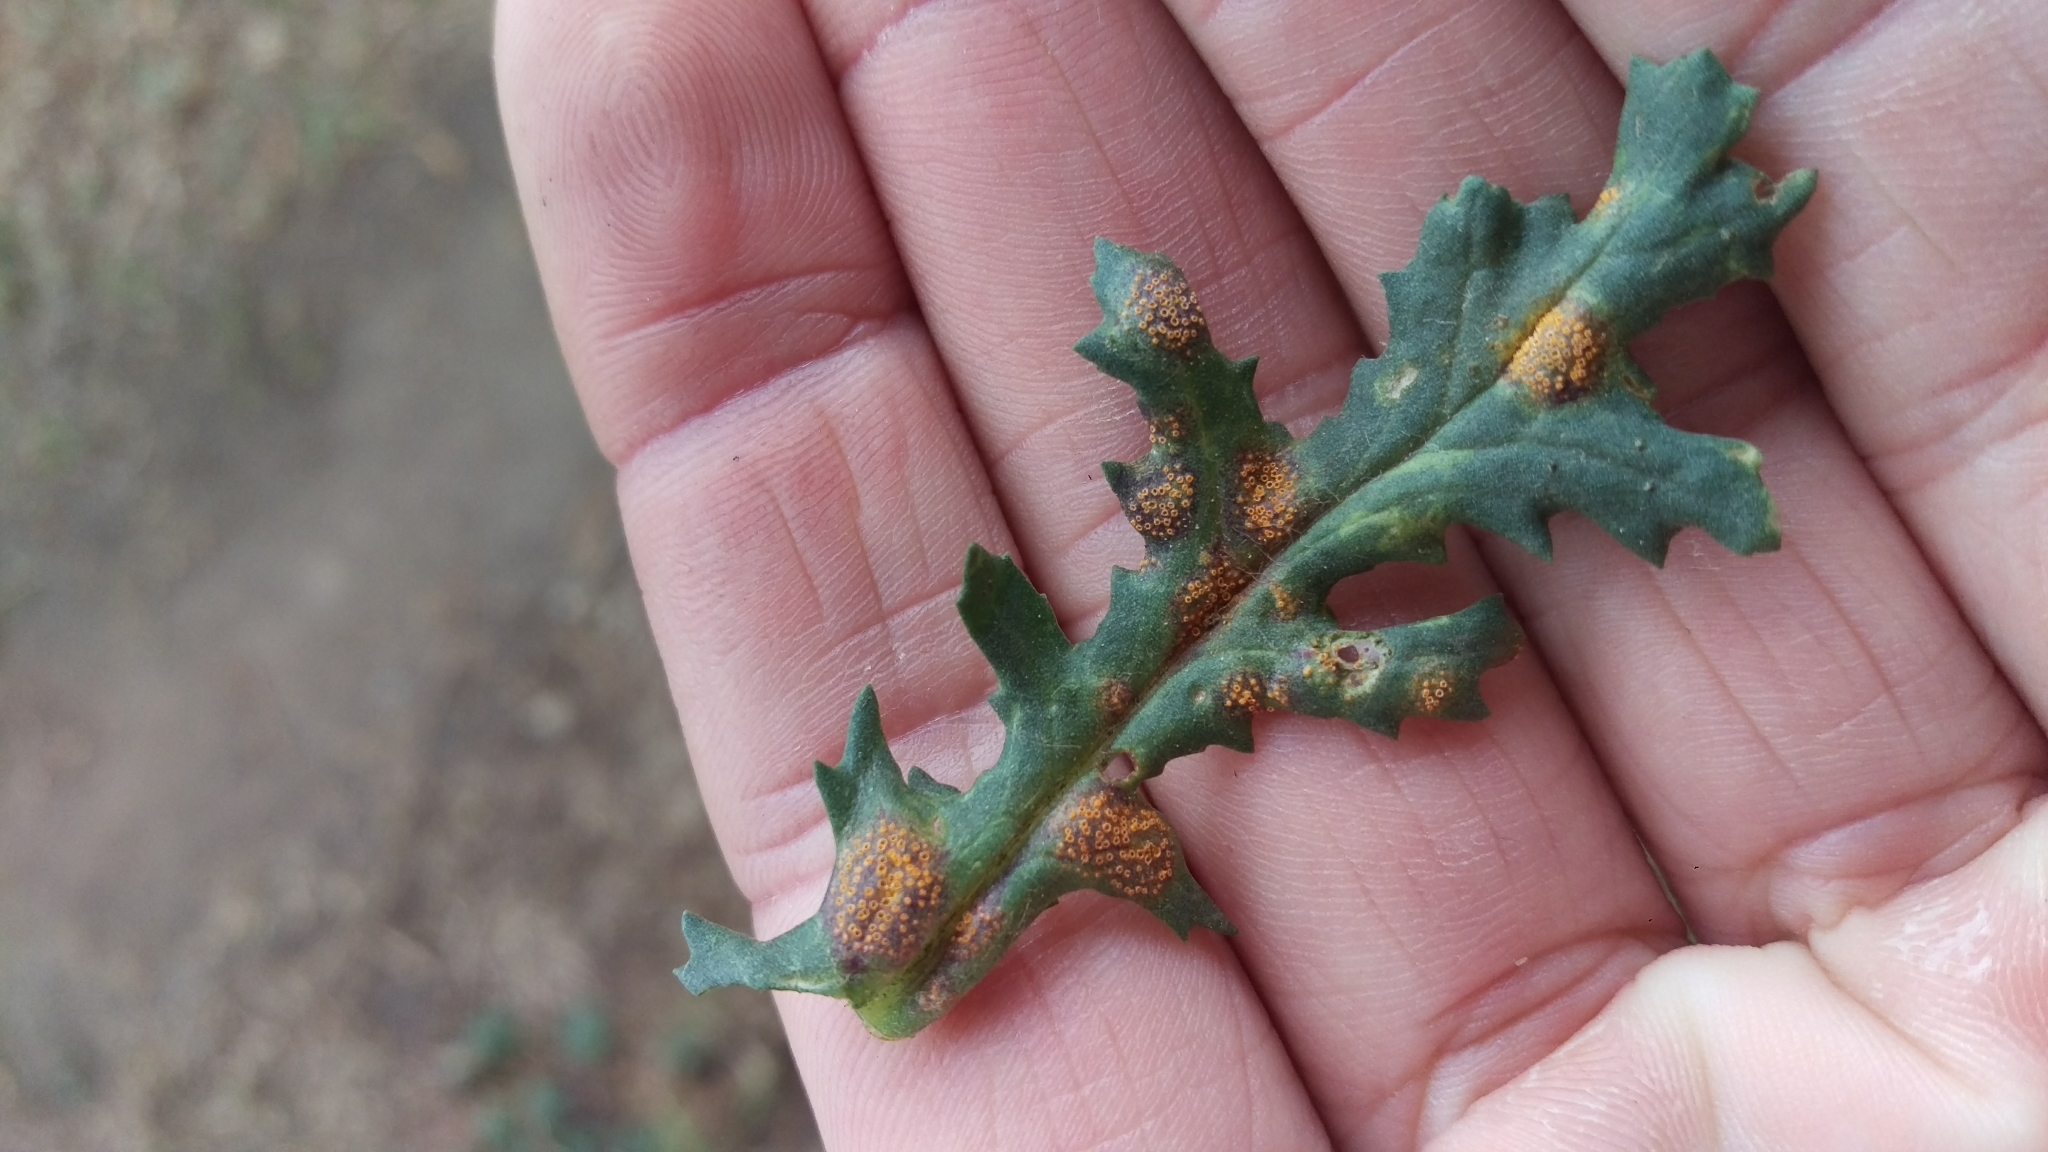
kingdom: Fungi
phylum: Basidiomycota
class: Pucciniomycetes
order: Pucciniales
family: Pucciniaceae
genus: Puccinia
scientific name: Puccinia lagenophorae
